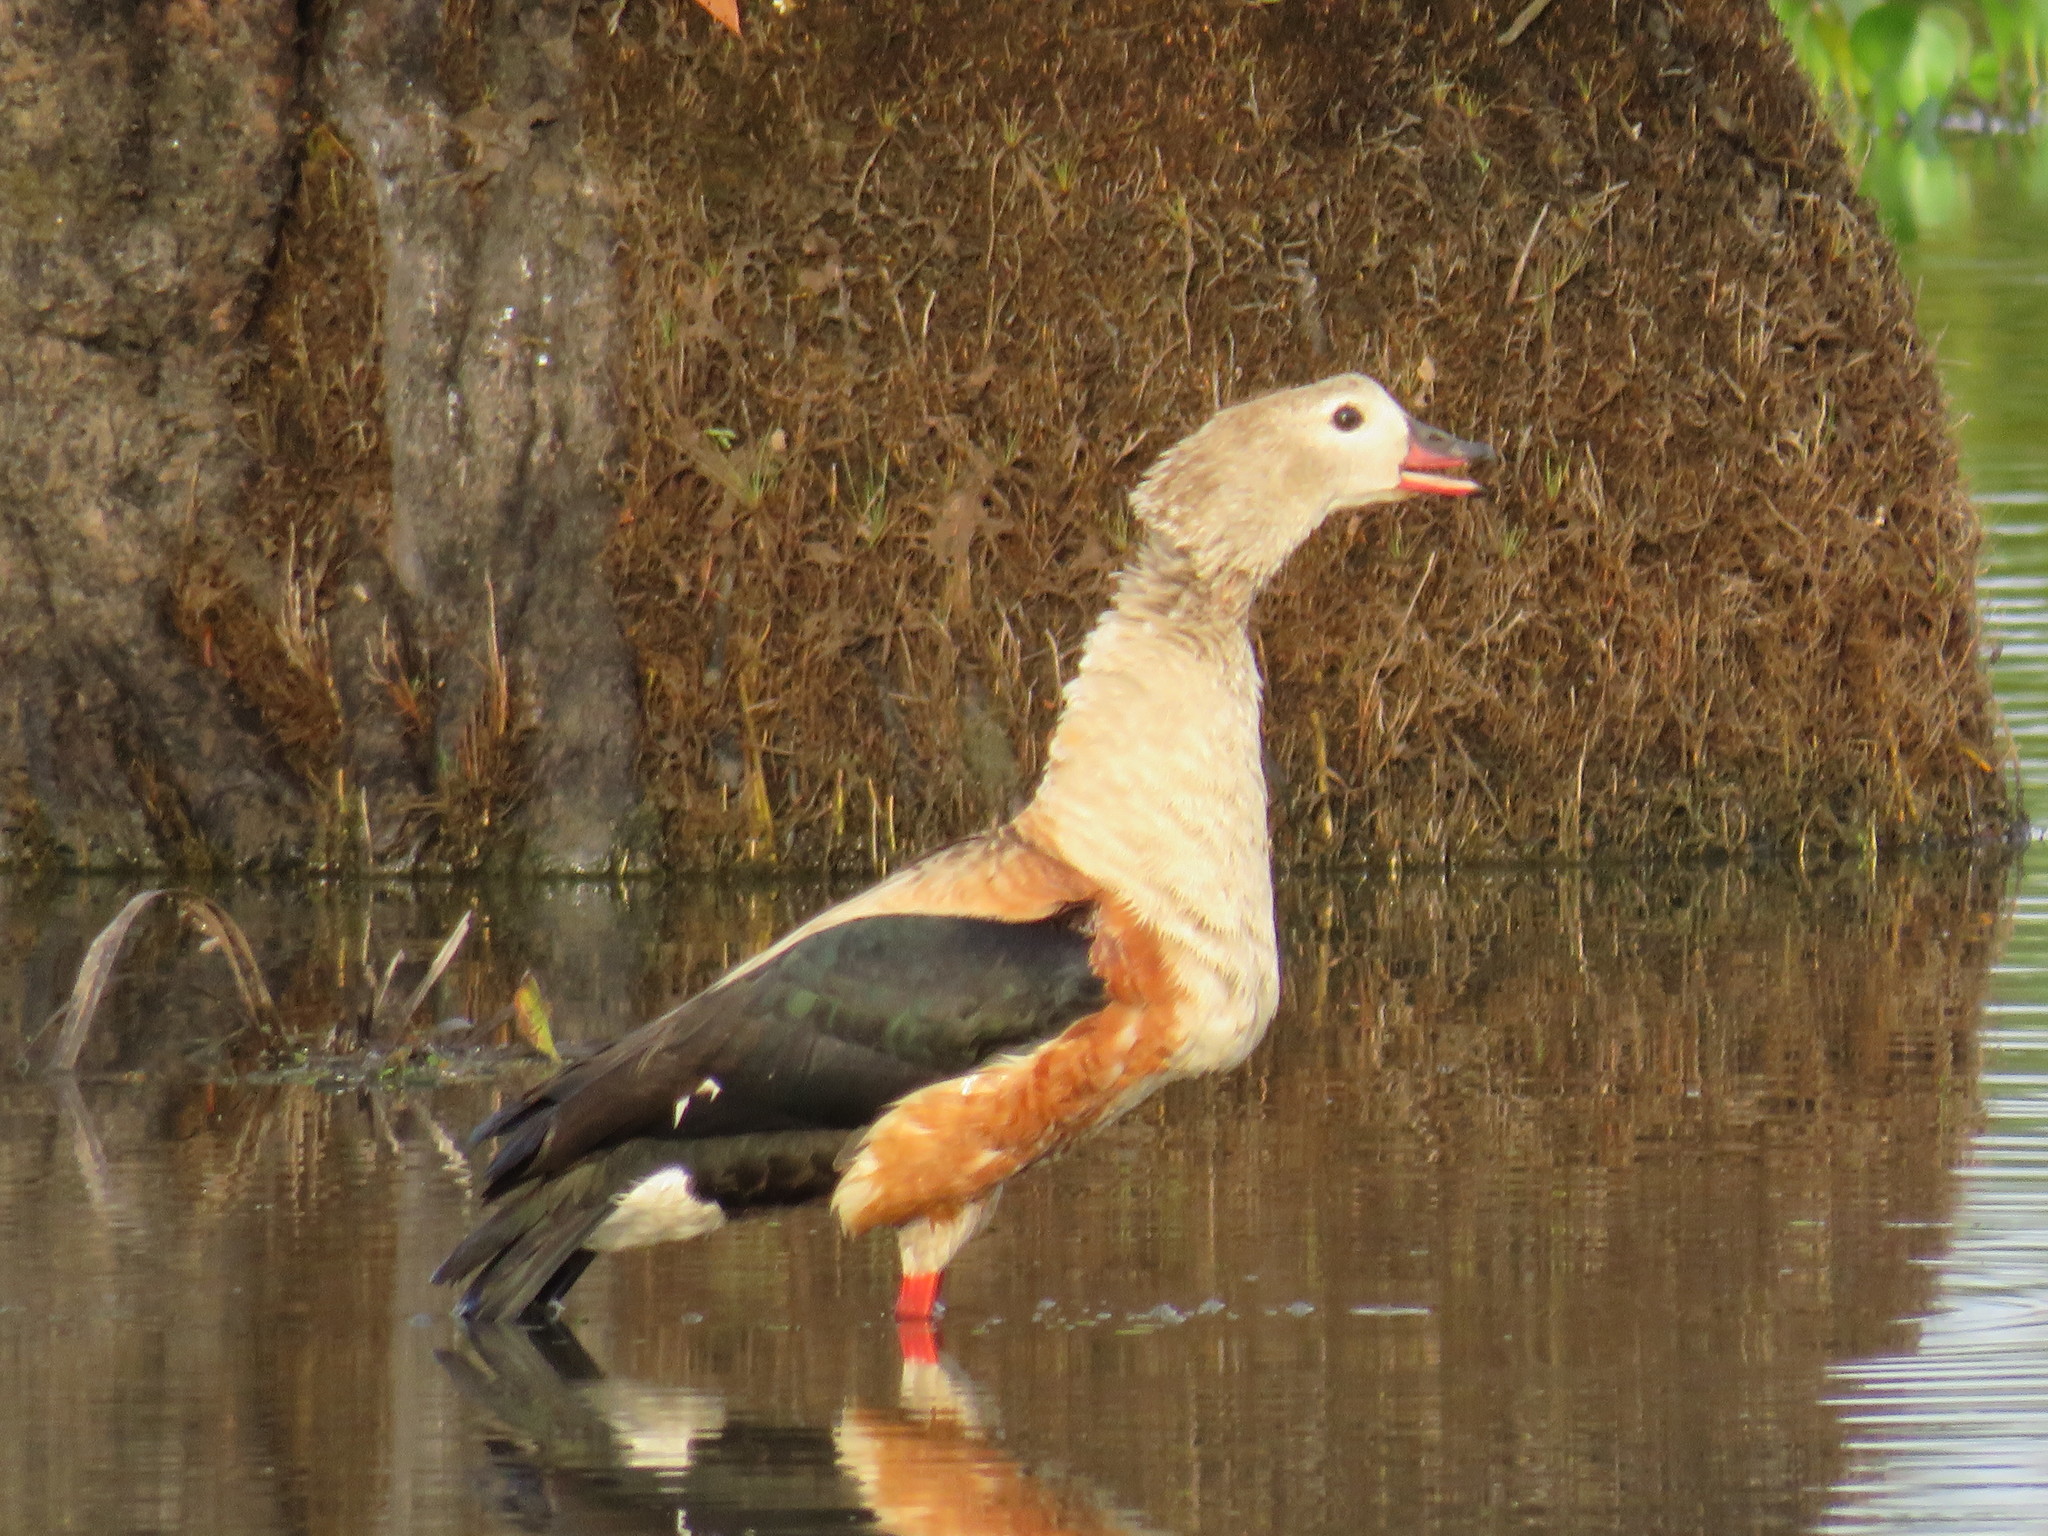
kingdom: Animalia
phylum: Chordata
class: Aves
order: Anseriformes
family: Anatidae
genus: Oressochen
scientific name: Oressochen jubatus
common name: Orinoco goose
